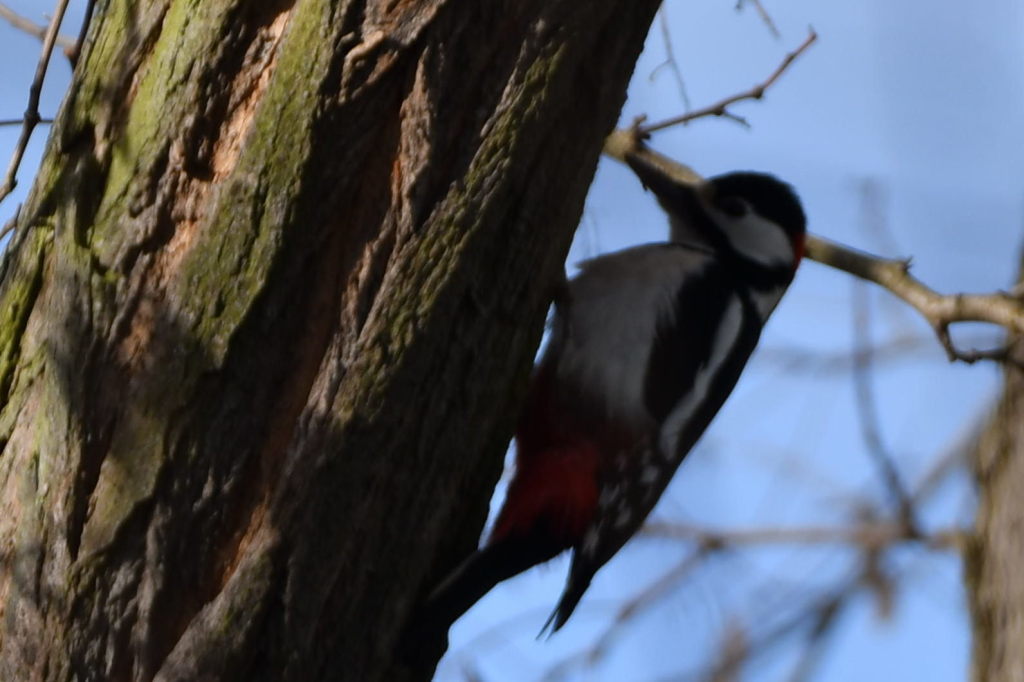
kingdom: Animalia
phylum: Chordata
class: Aves
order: Piciformes
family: Picidae
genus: Dendrocopos
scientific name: Dendrocopos major
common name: Great spotted woodpecker
